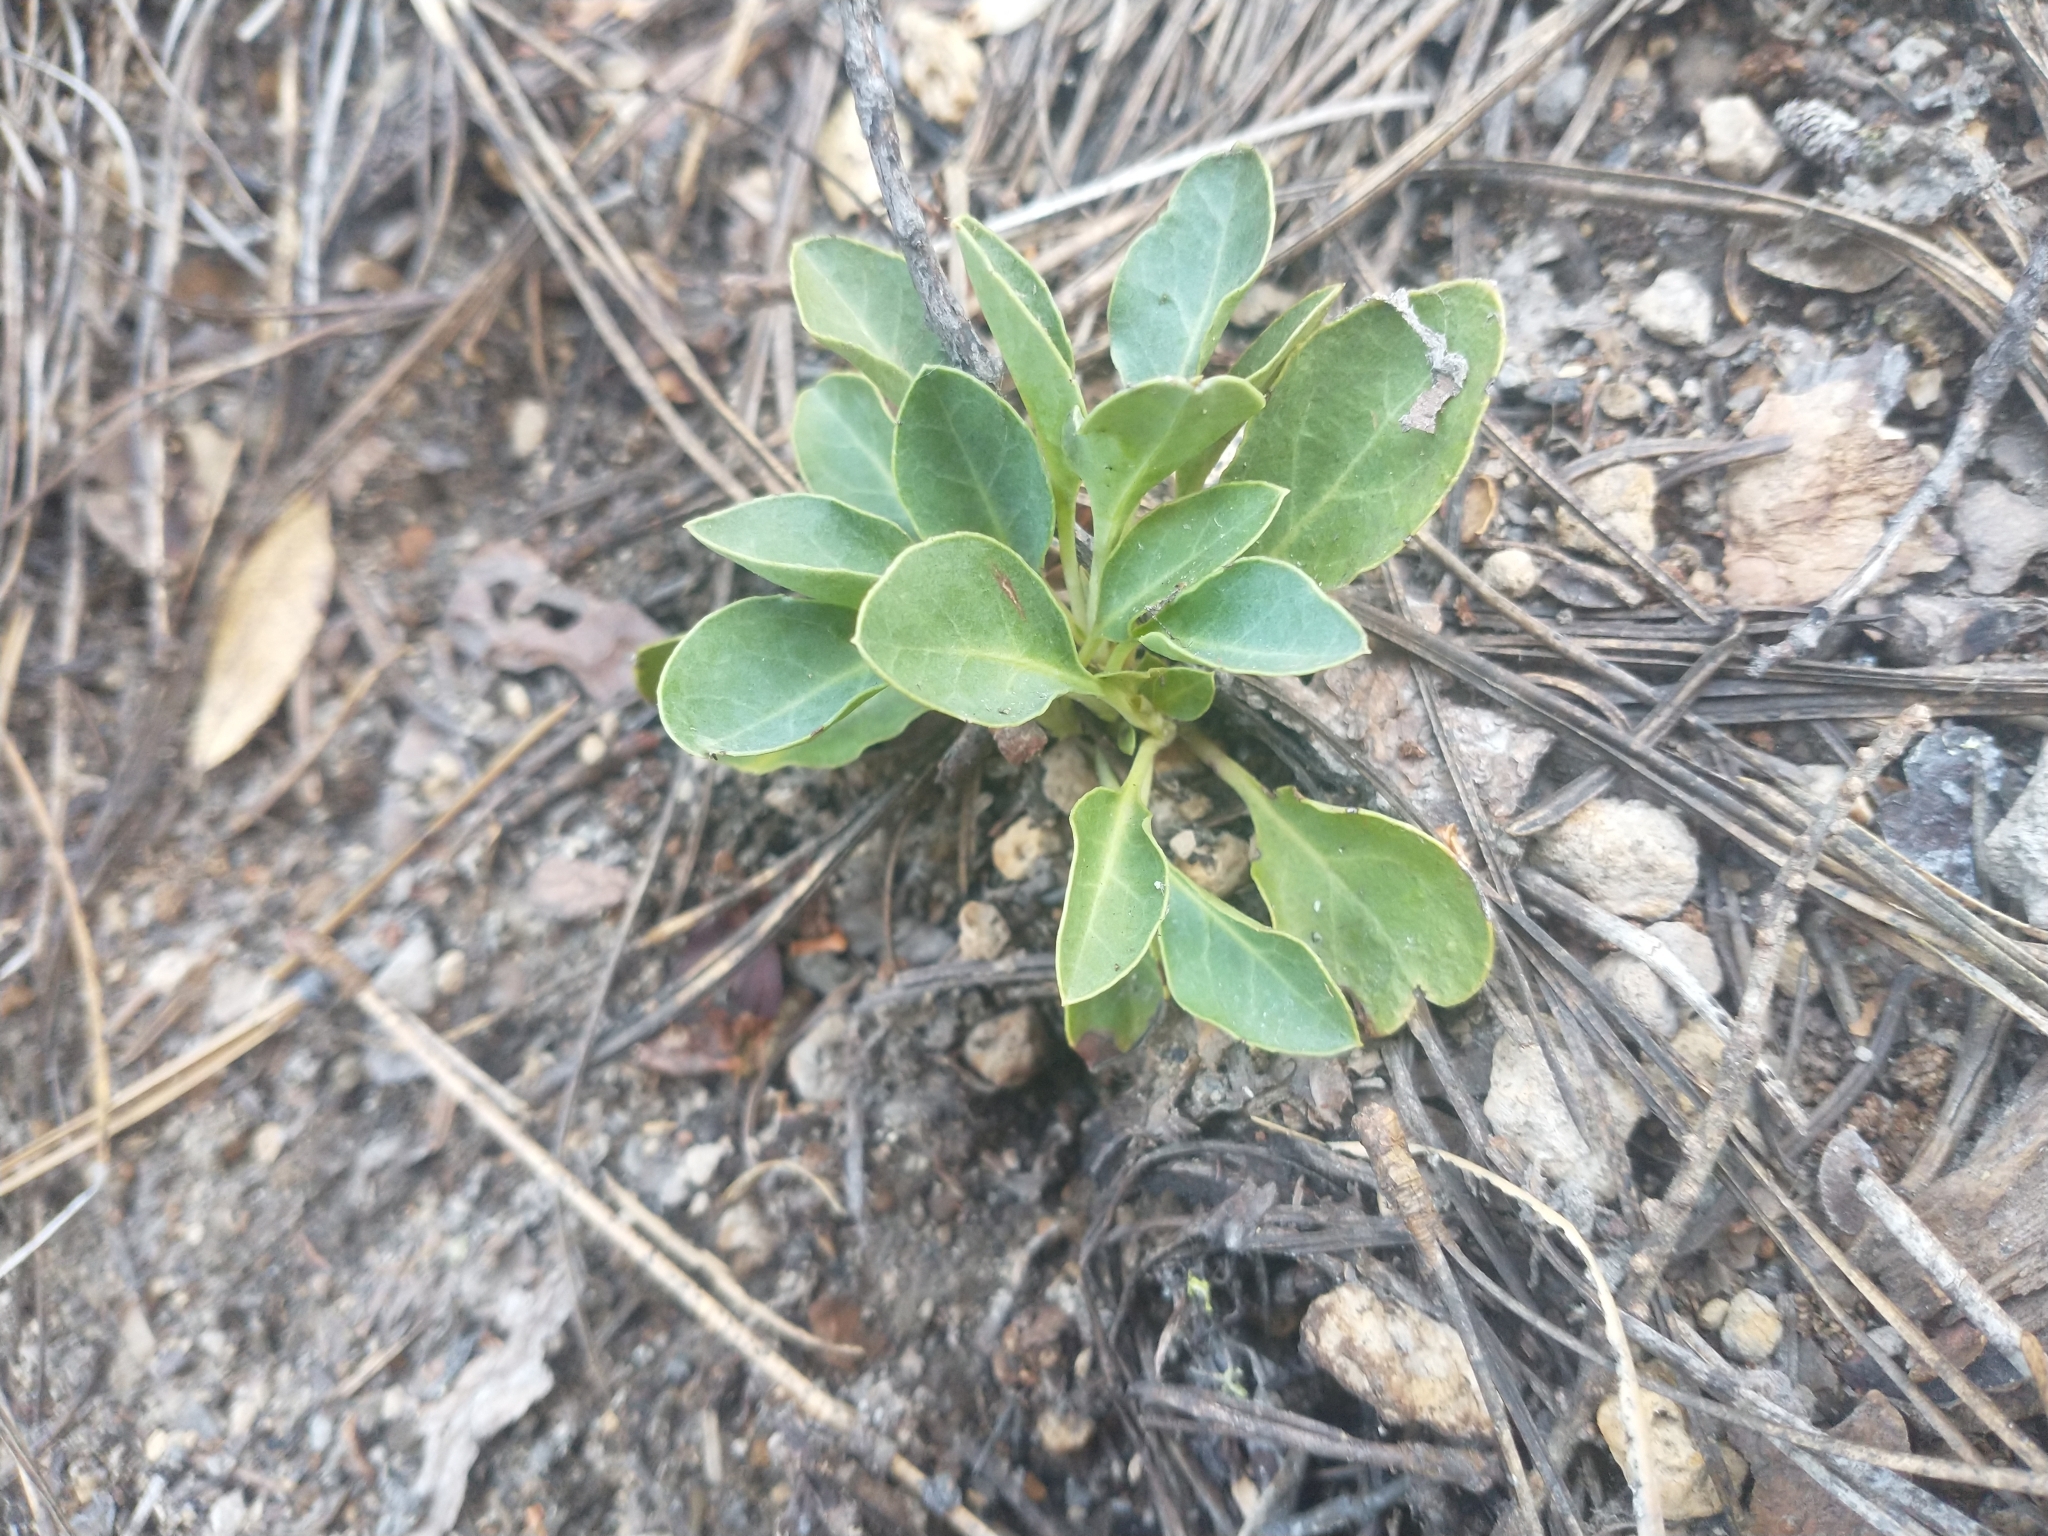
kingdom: Plantae
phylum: Tracheophyta
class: Magnoliopsida
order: Ericales
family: Ericaceae
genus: Pyrola
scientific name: Pyrola dentata
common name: Tooth-leaved wintergreen
